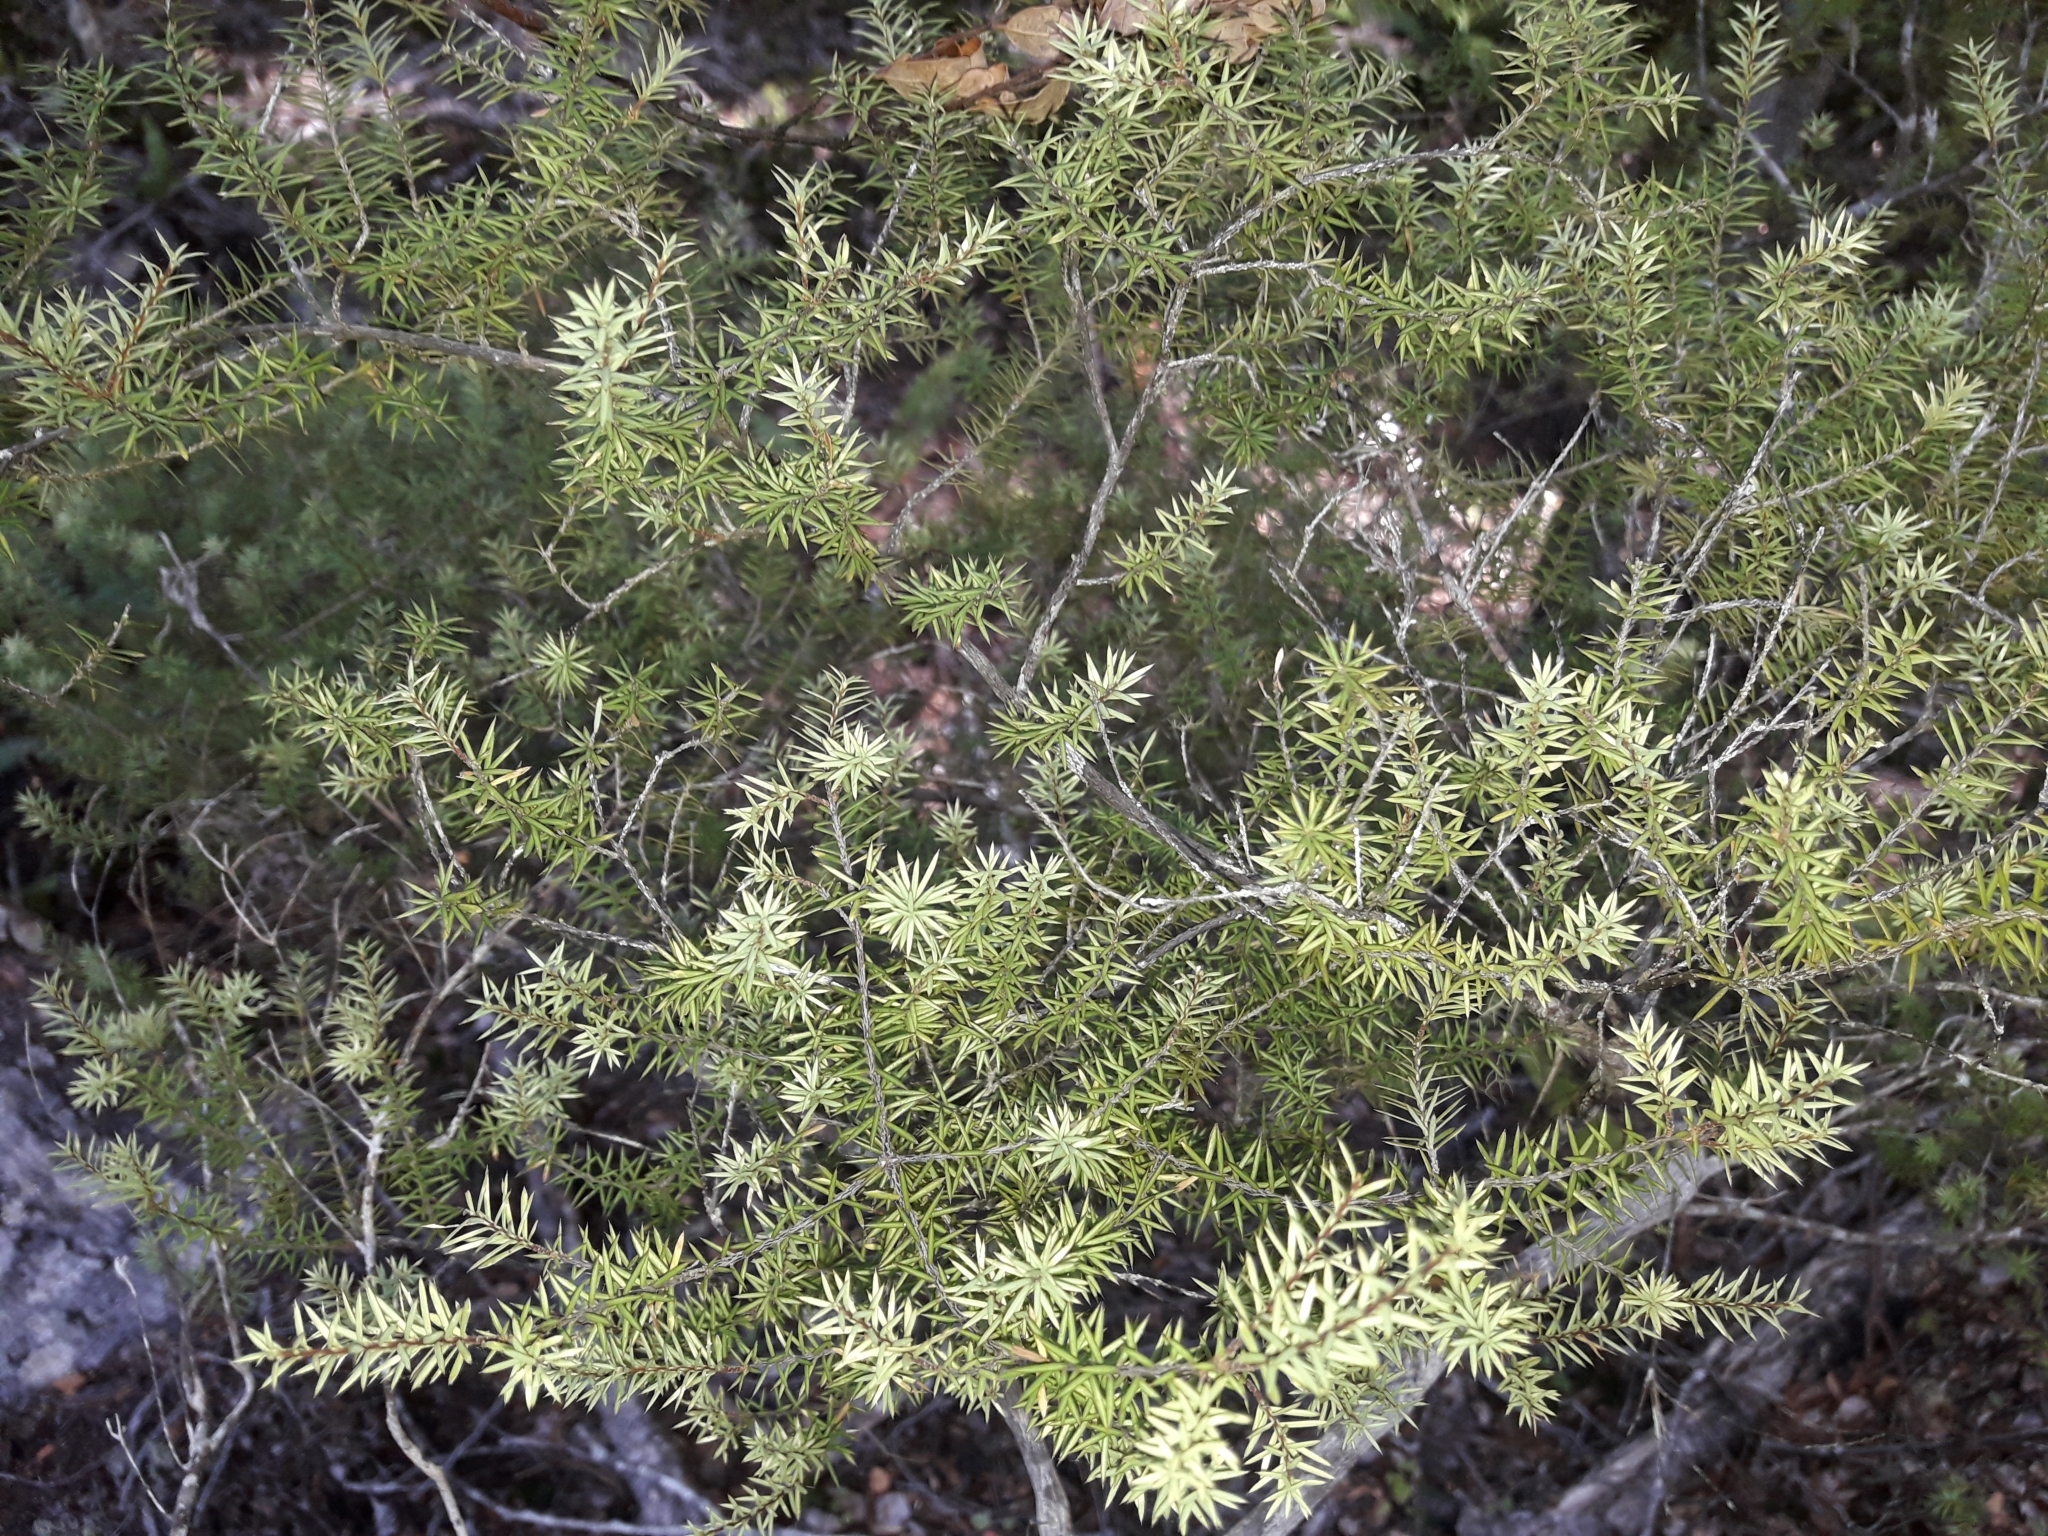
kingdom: Plantae
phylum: Tracheophyta
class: Magnoliopsida
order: Ericales
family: Ericaceae
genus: Leptecophylla
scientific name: Leptecophylla juniperina
